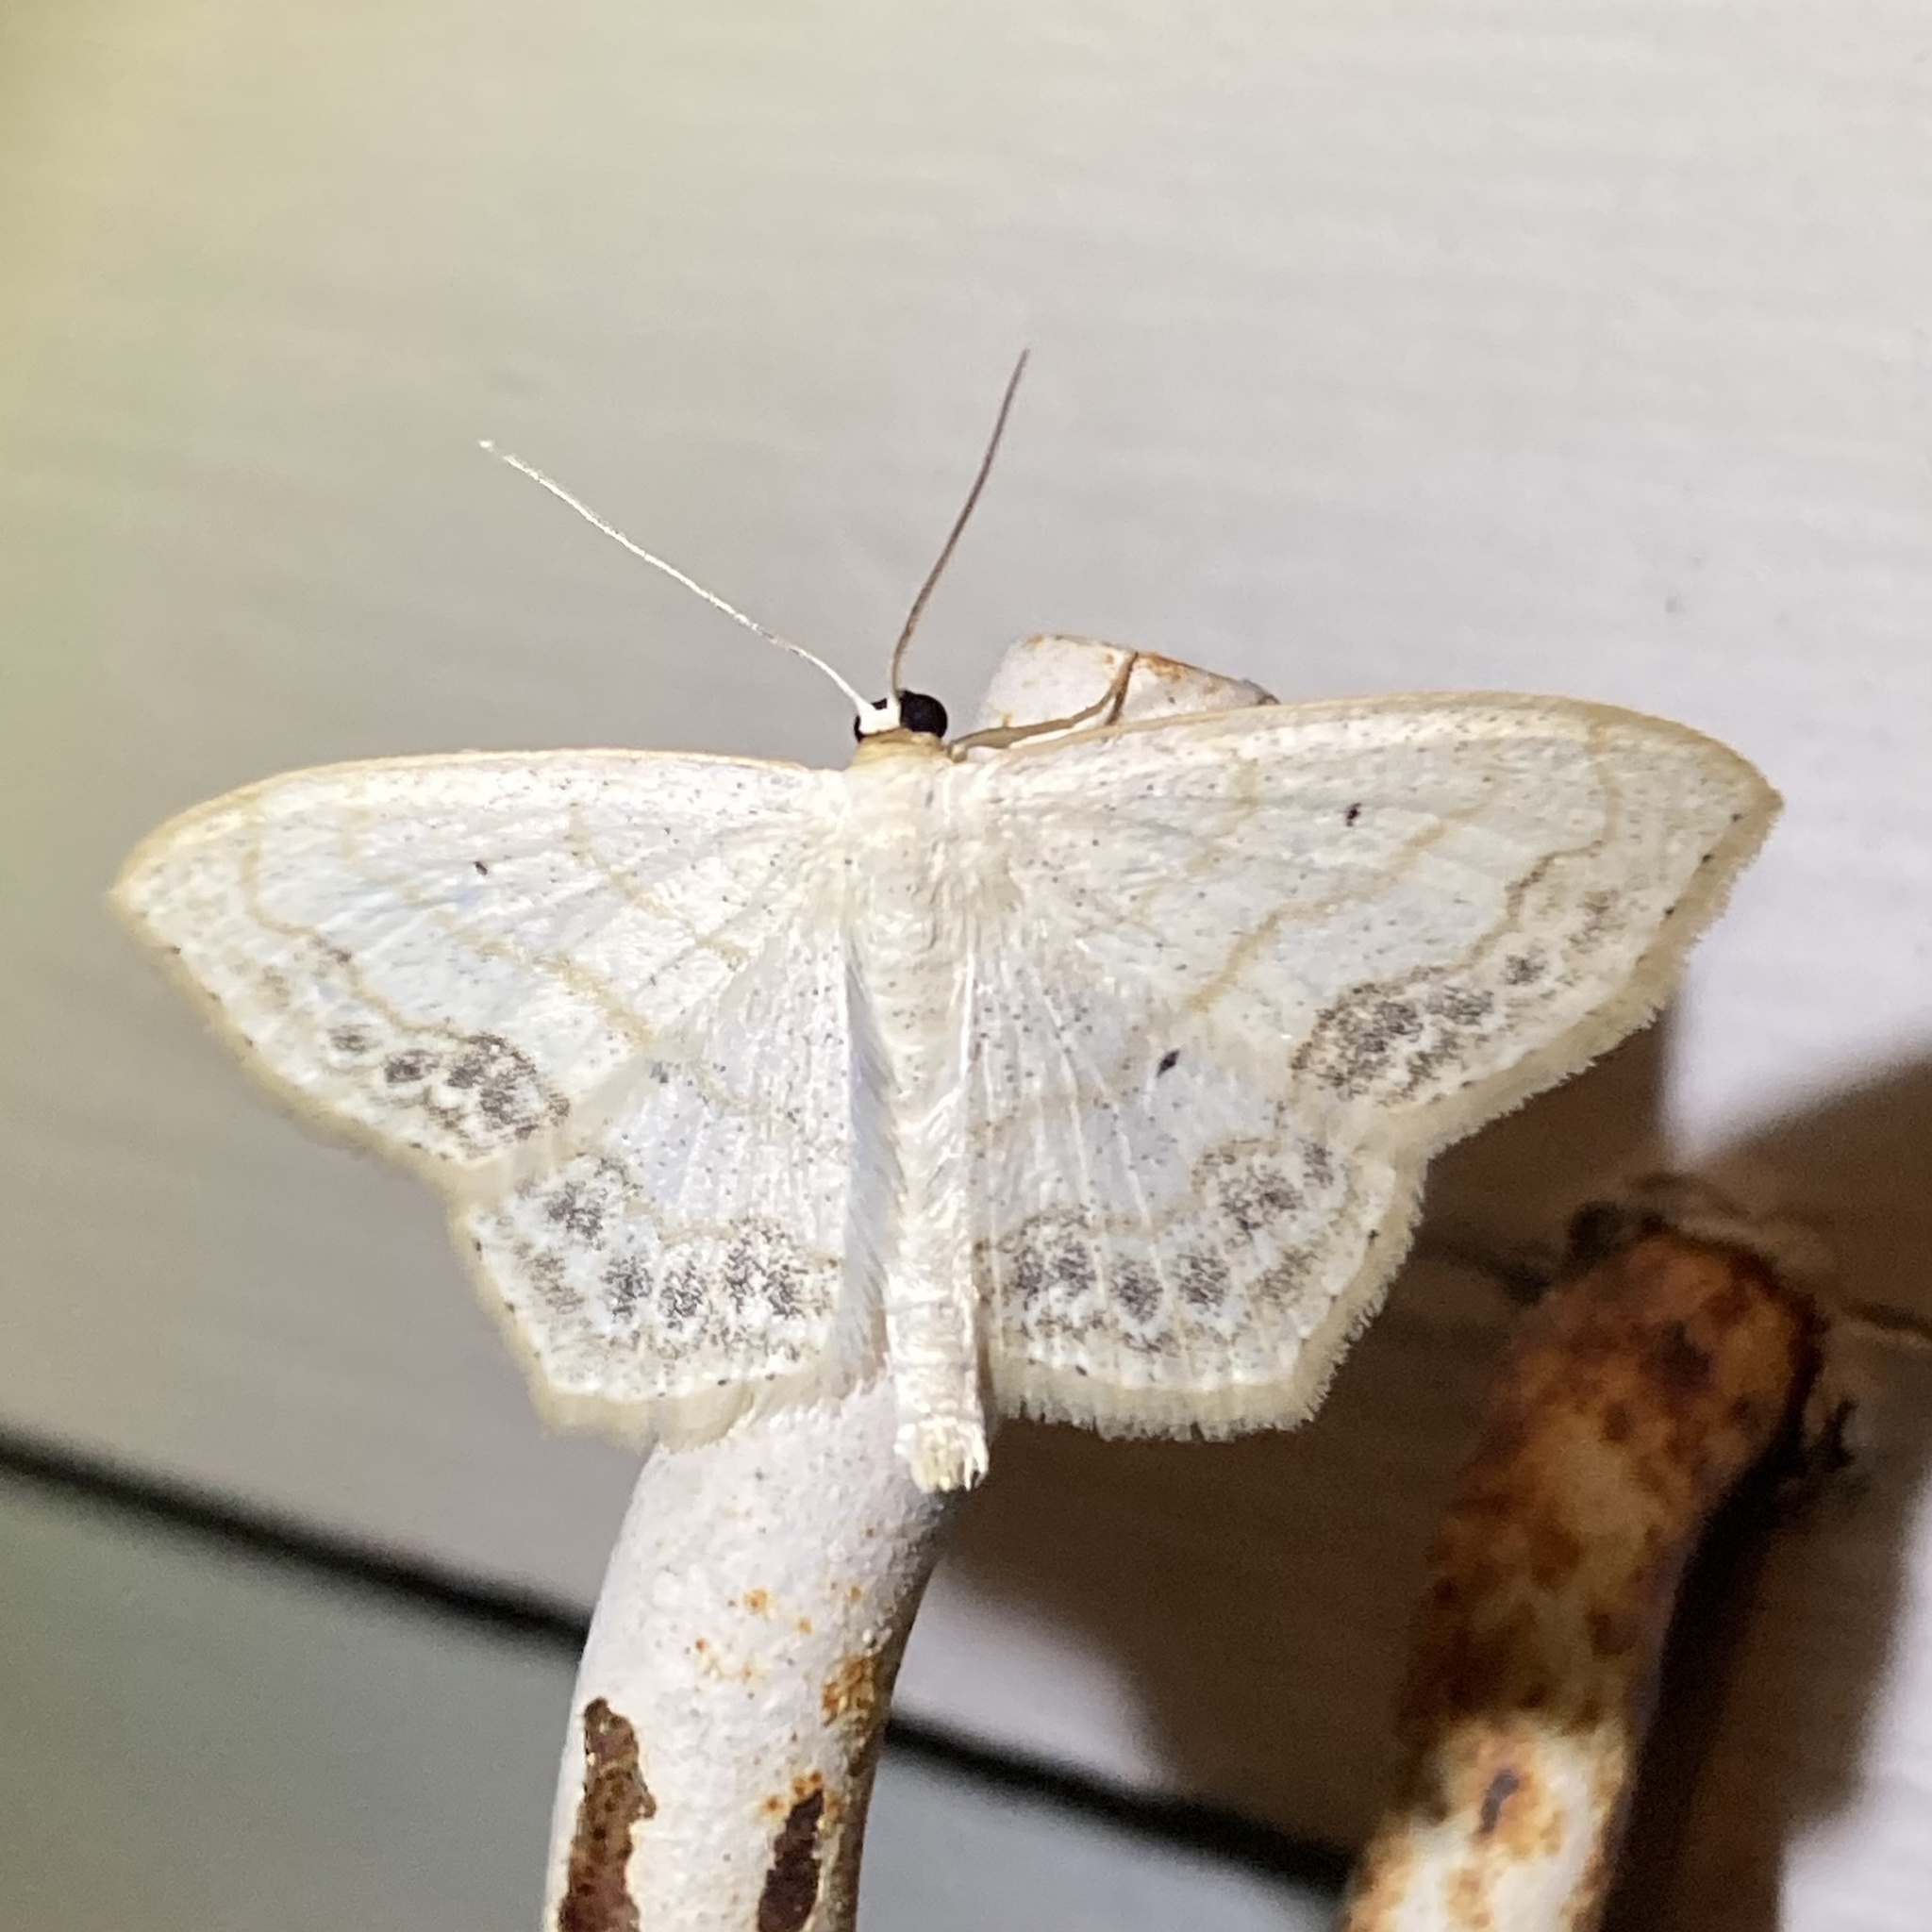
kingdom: Animalia
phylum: Arthropoda
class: Insecta
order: Lepidoptera
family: Geometridae
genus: Scopula
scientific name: Scopula limboundata
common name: Large lace border
